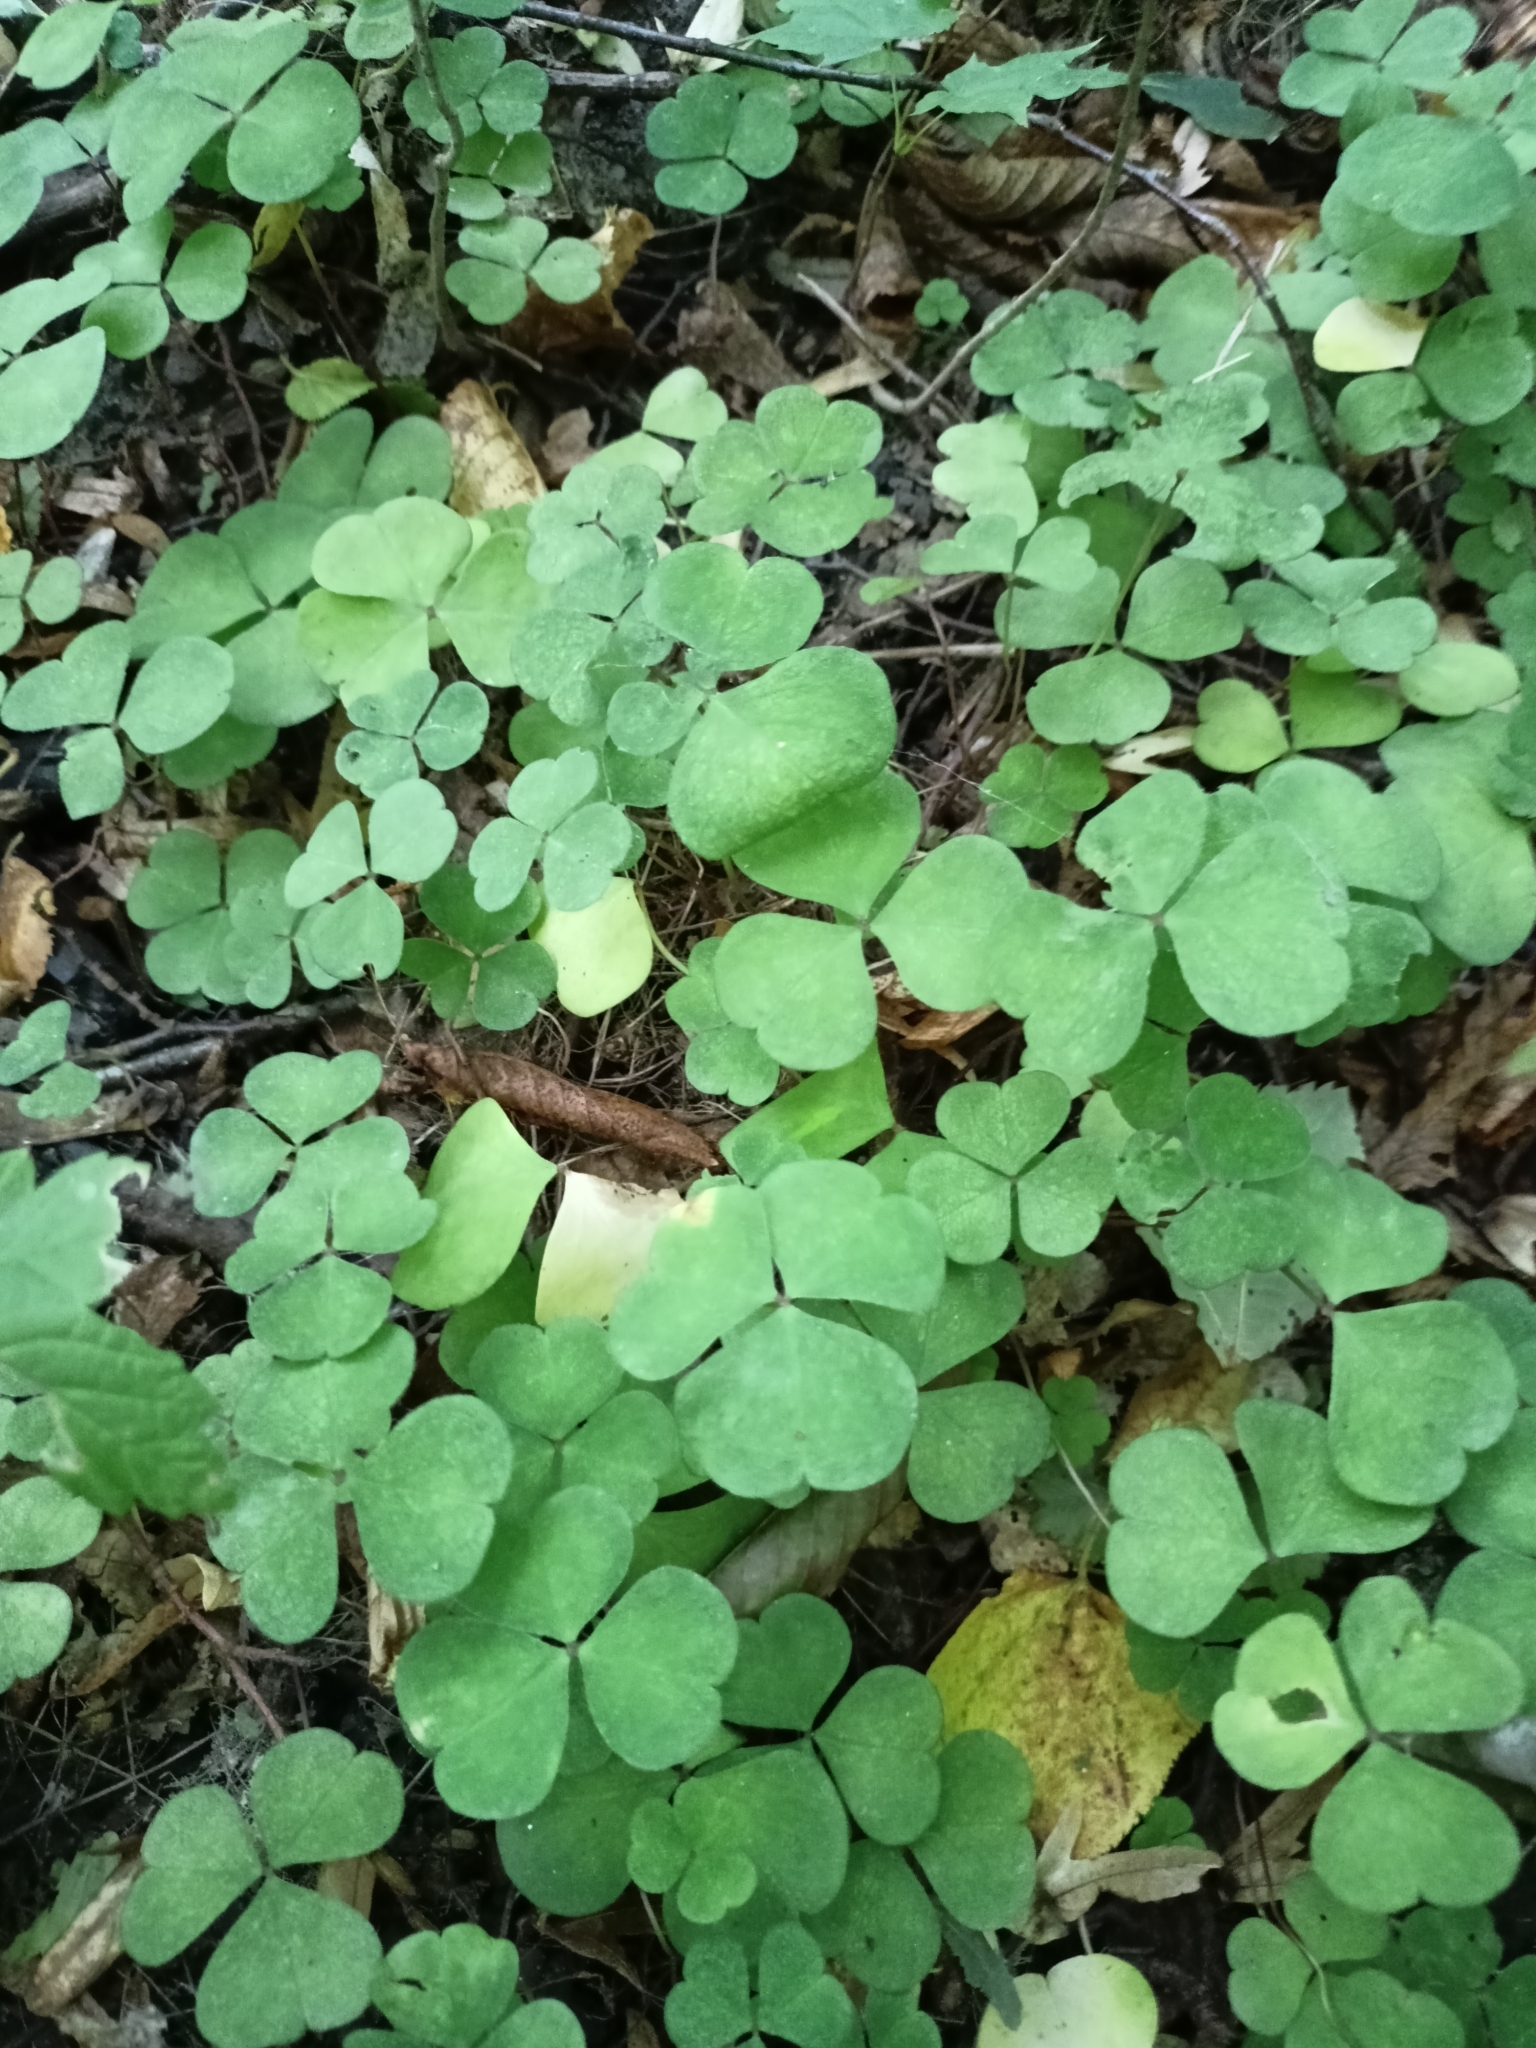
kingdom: Plantae
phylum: Tracheophyta
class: Magnoliopsida
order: Oxalidales
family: Oxalidaceae
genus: Oxalis
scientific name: Oxalis acetosella
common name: Wood-sorrel
